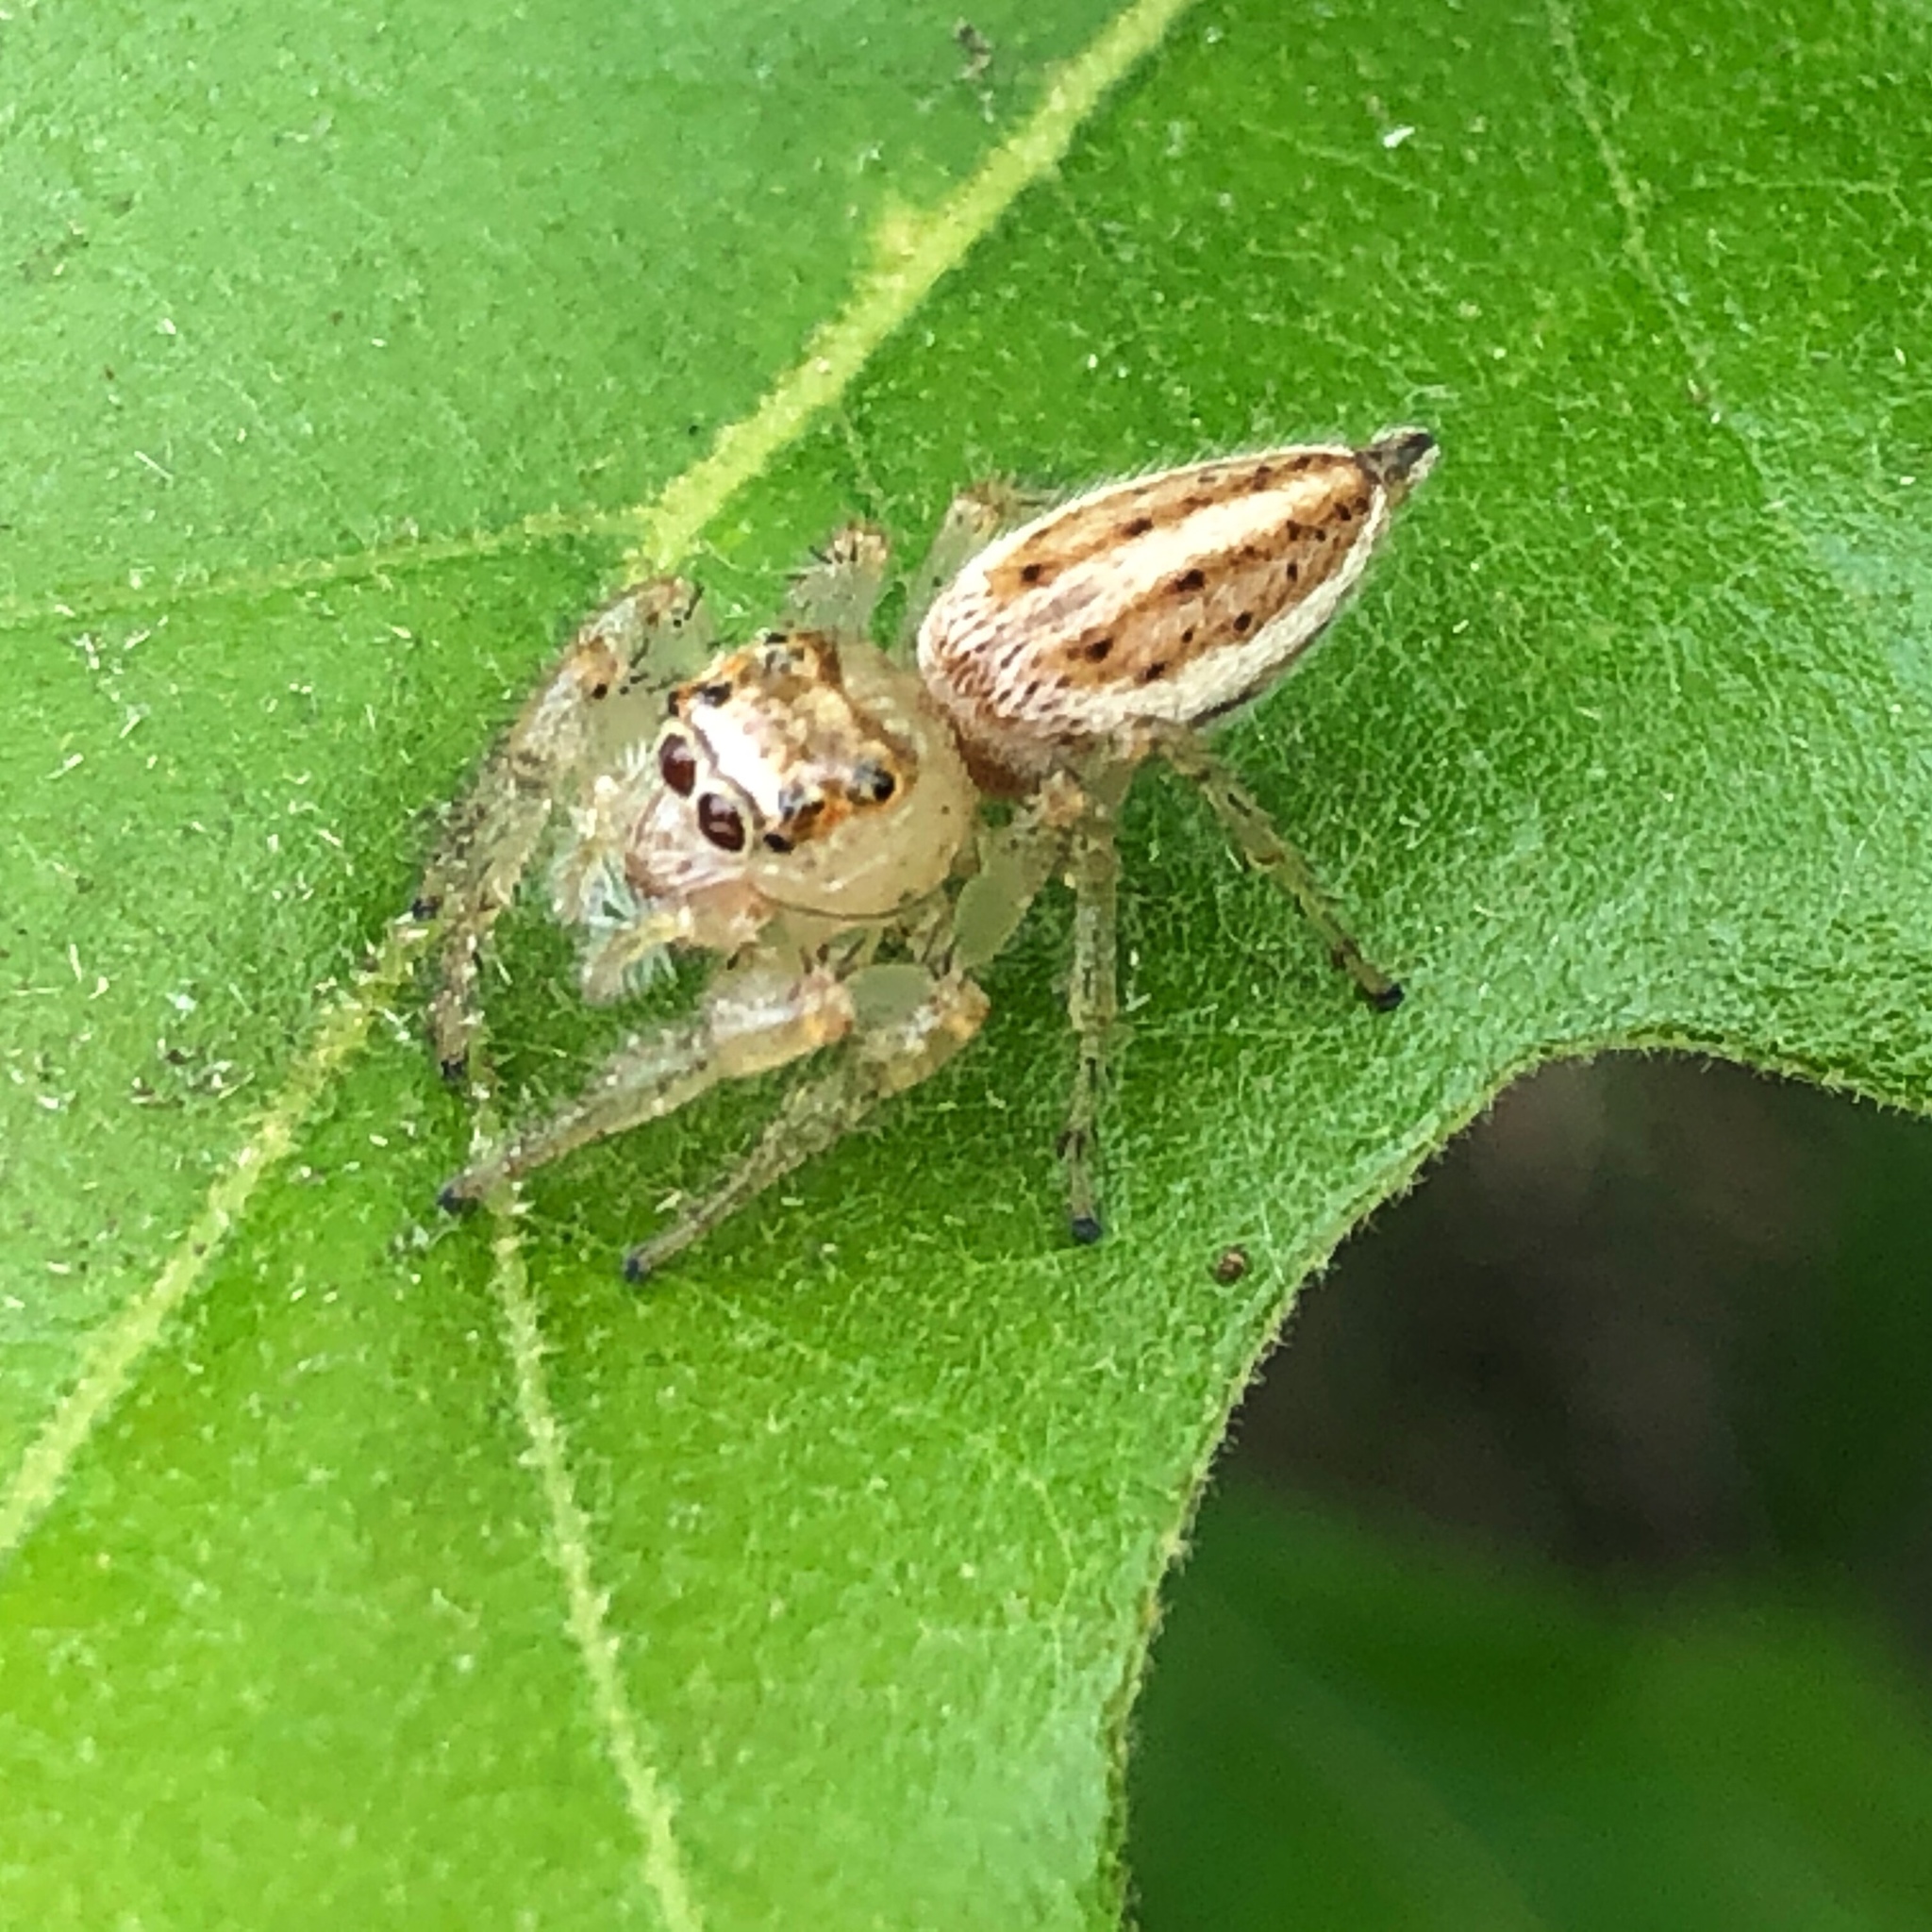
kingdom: Animalia
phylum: Arthropoda
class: Arachnida
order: Araneae
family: Salticidae
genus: Colonus
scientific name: Colonus sylvanus
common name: Jumping spiders
